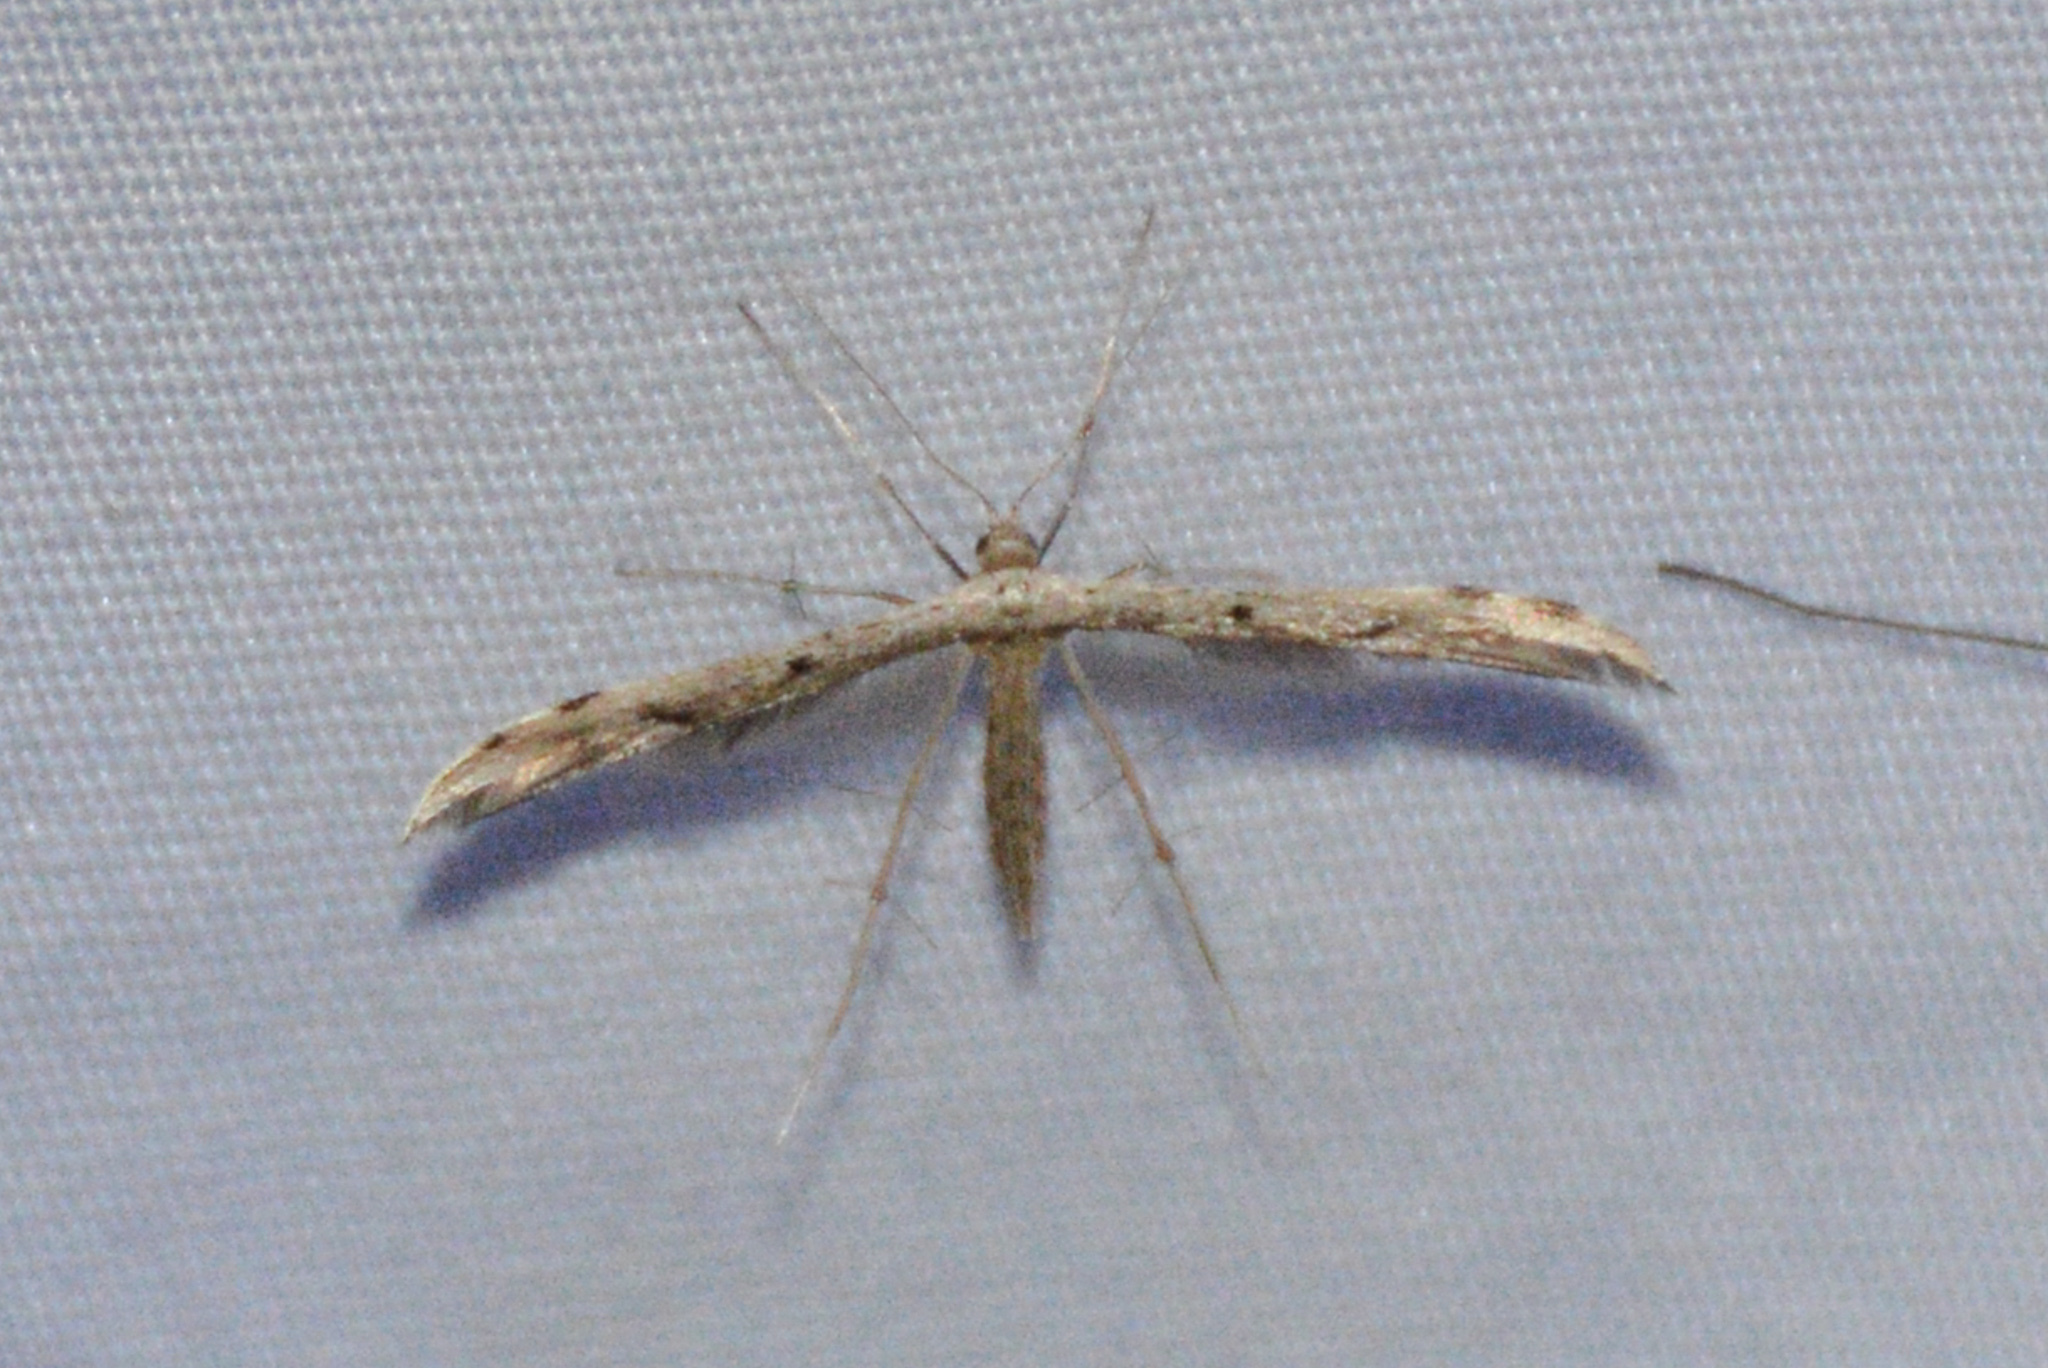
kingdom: Animalia
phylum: Arthropoda
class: Insecta
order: Lepidoptera
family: Pterophoridae
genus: Pselnophorus
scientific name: Pselnophorus belfragei
